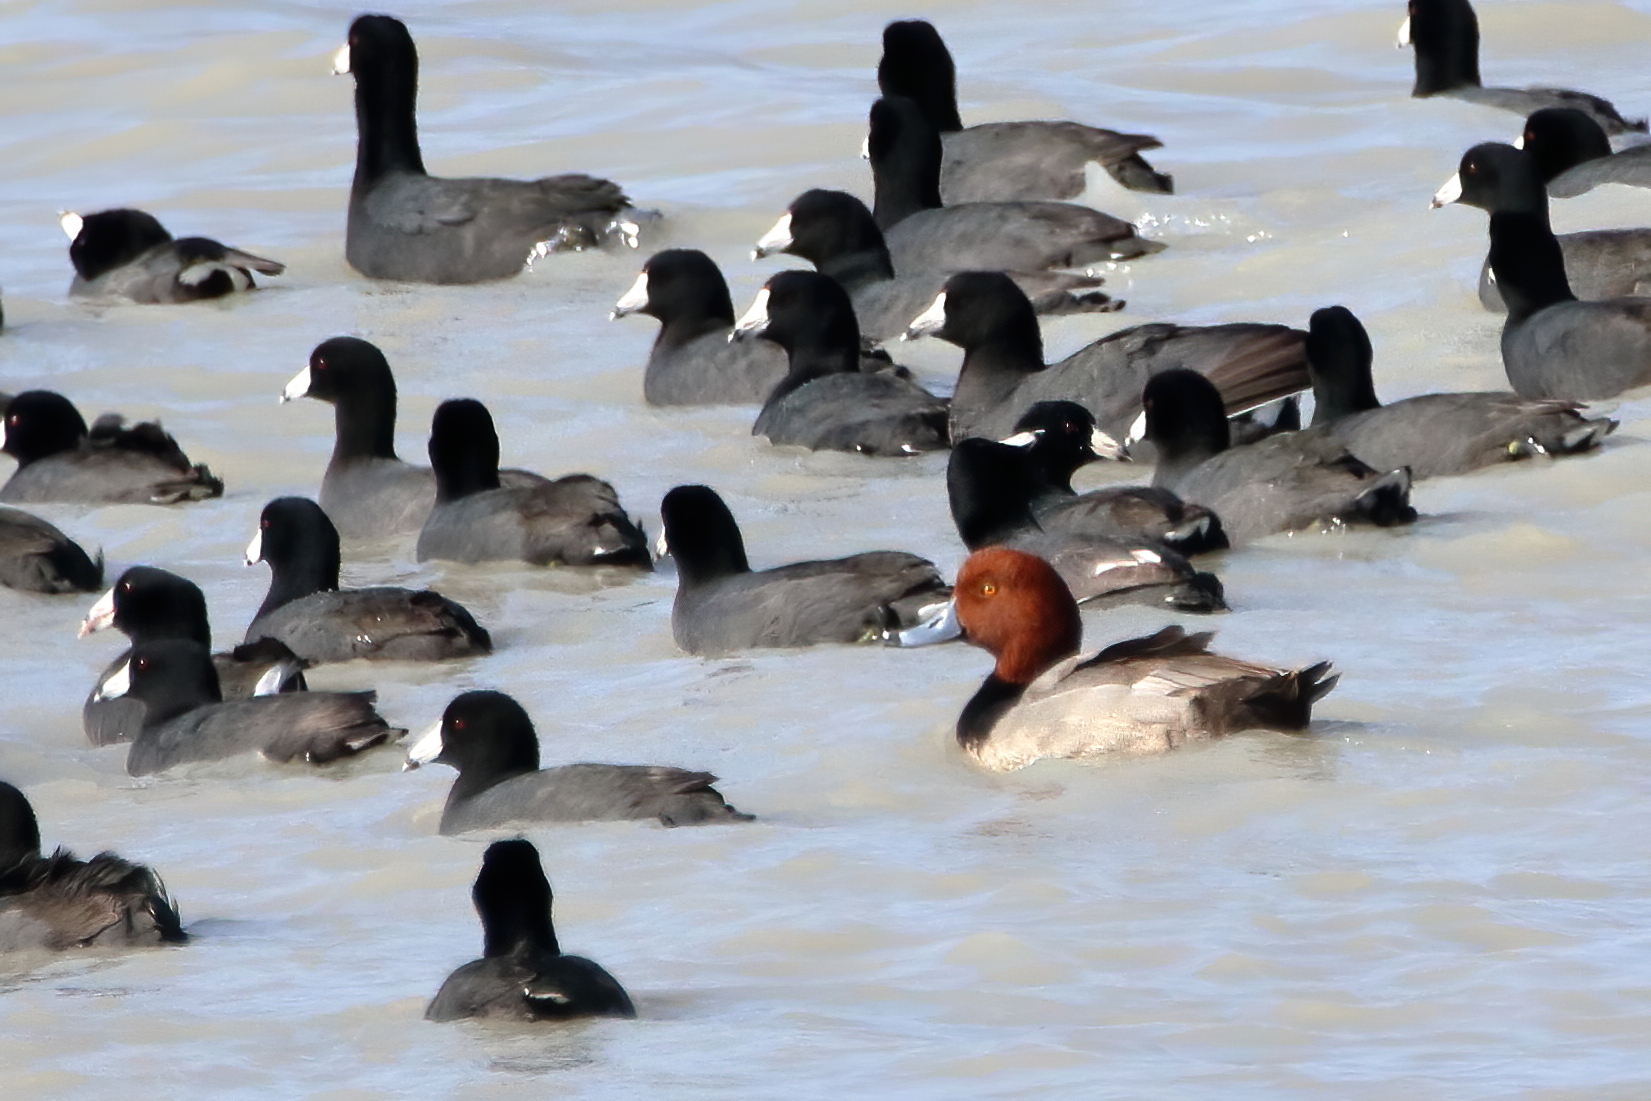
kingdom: Animalia
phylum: Chordata
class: Aves
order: Anseriformes
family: Anatidae
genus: Aythya
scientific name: Aythya americana
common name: Redhead
